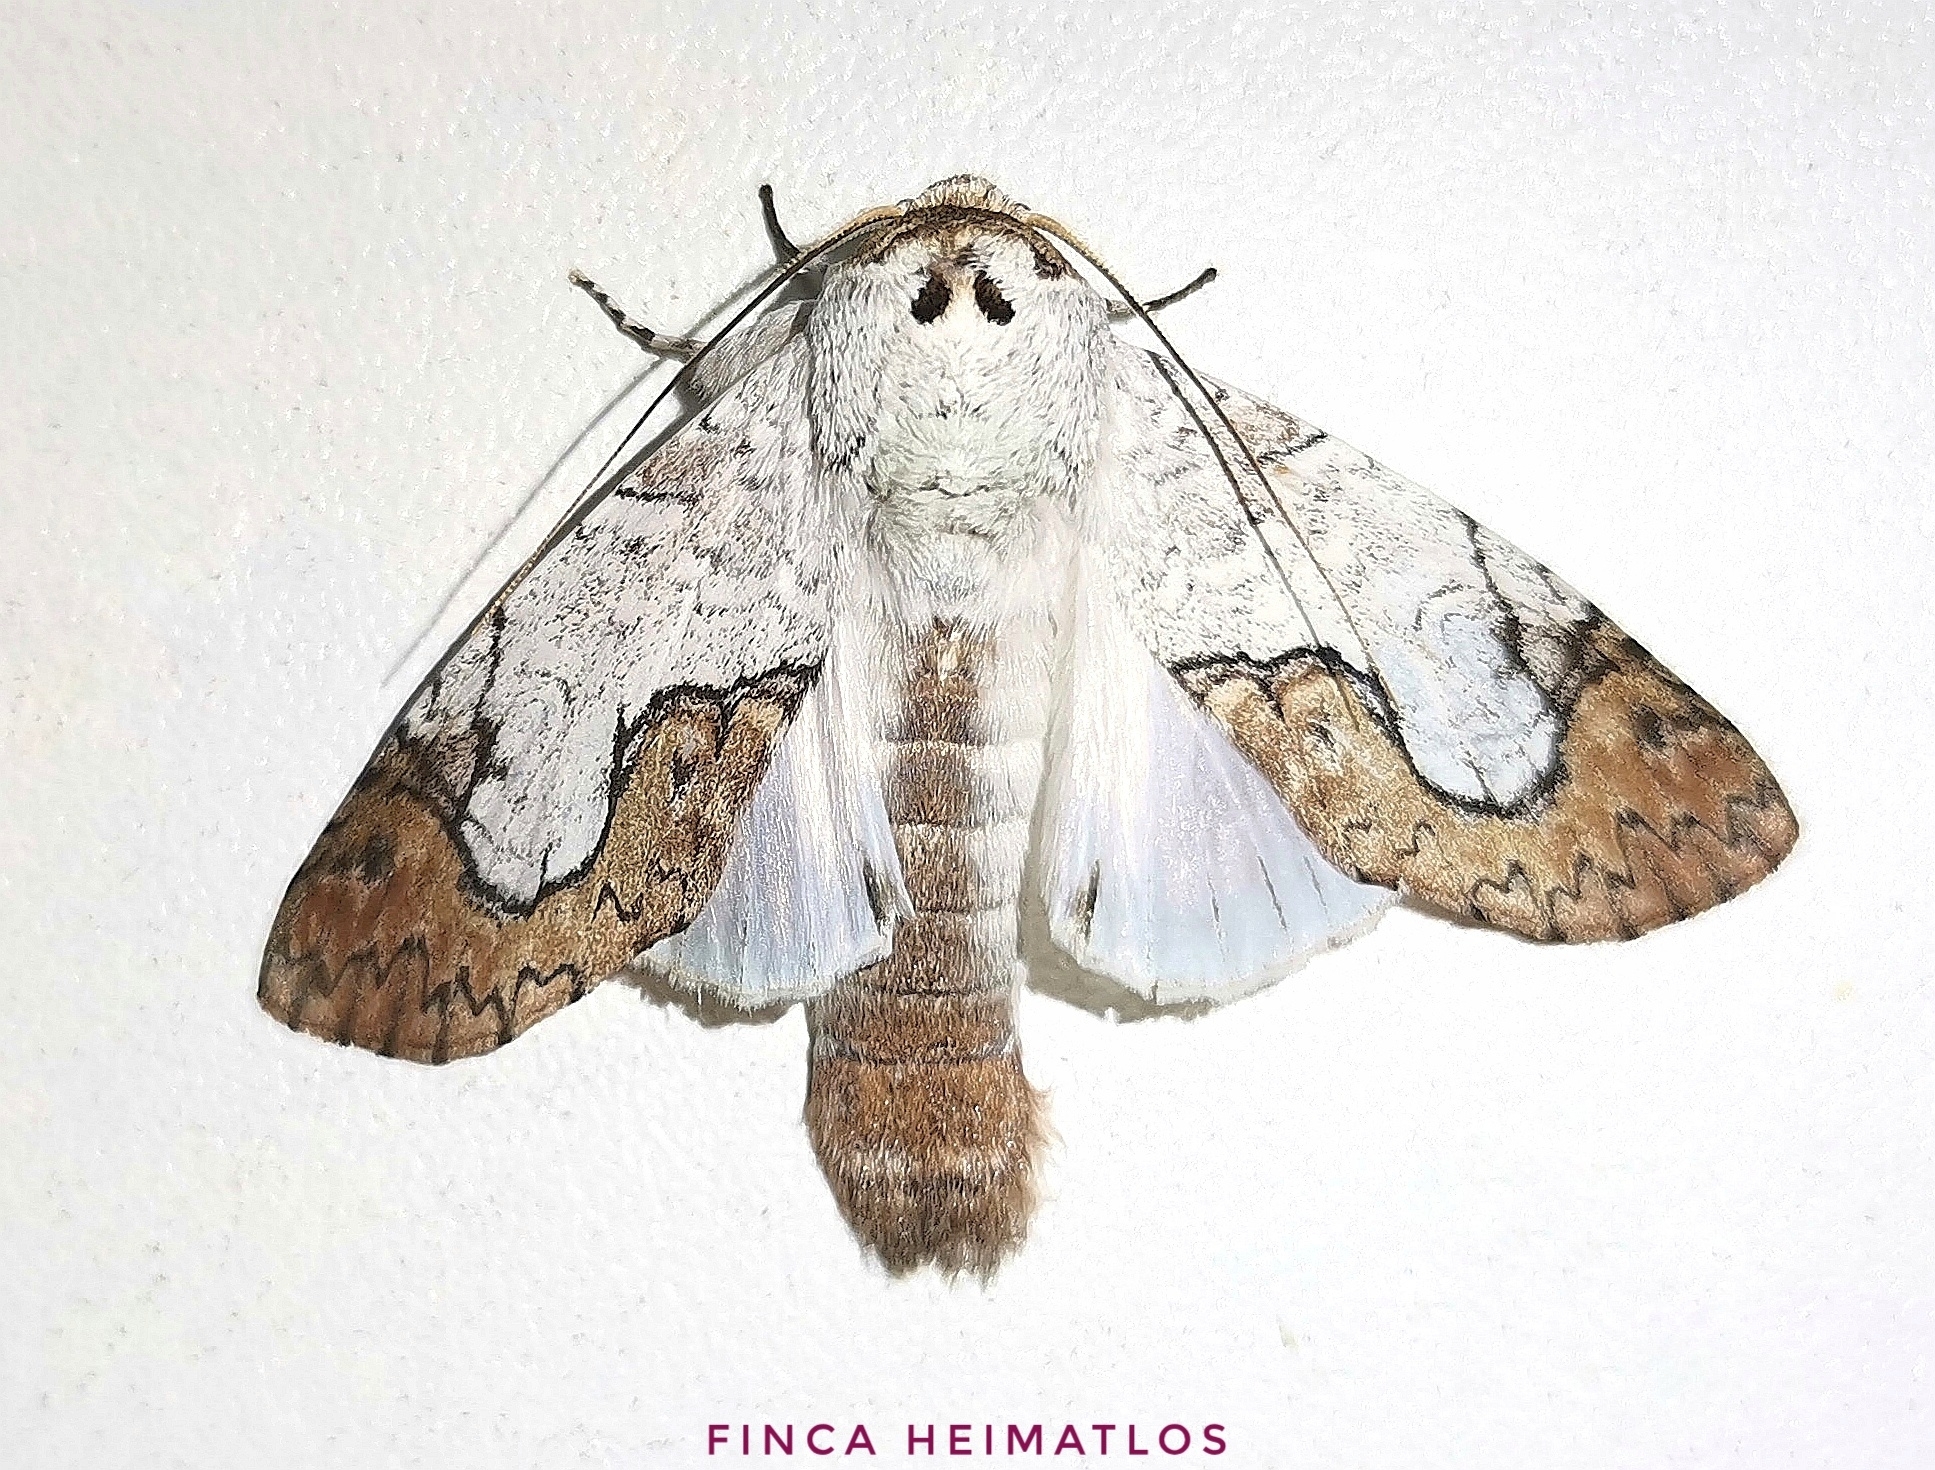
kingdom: Animalia
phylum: Arthropoda
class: Insecta
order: Lepidoptera
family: Notodontidae
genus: Ginaldia
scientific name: Ginaldia
